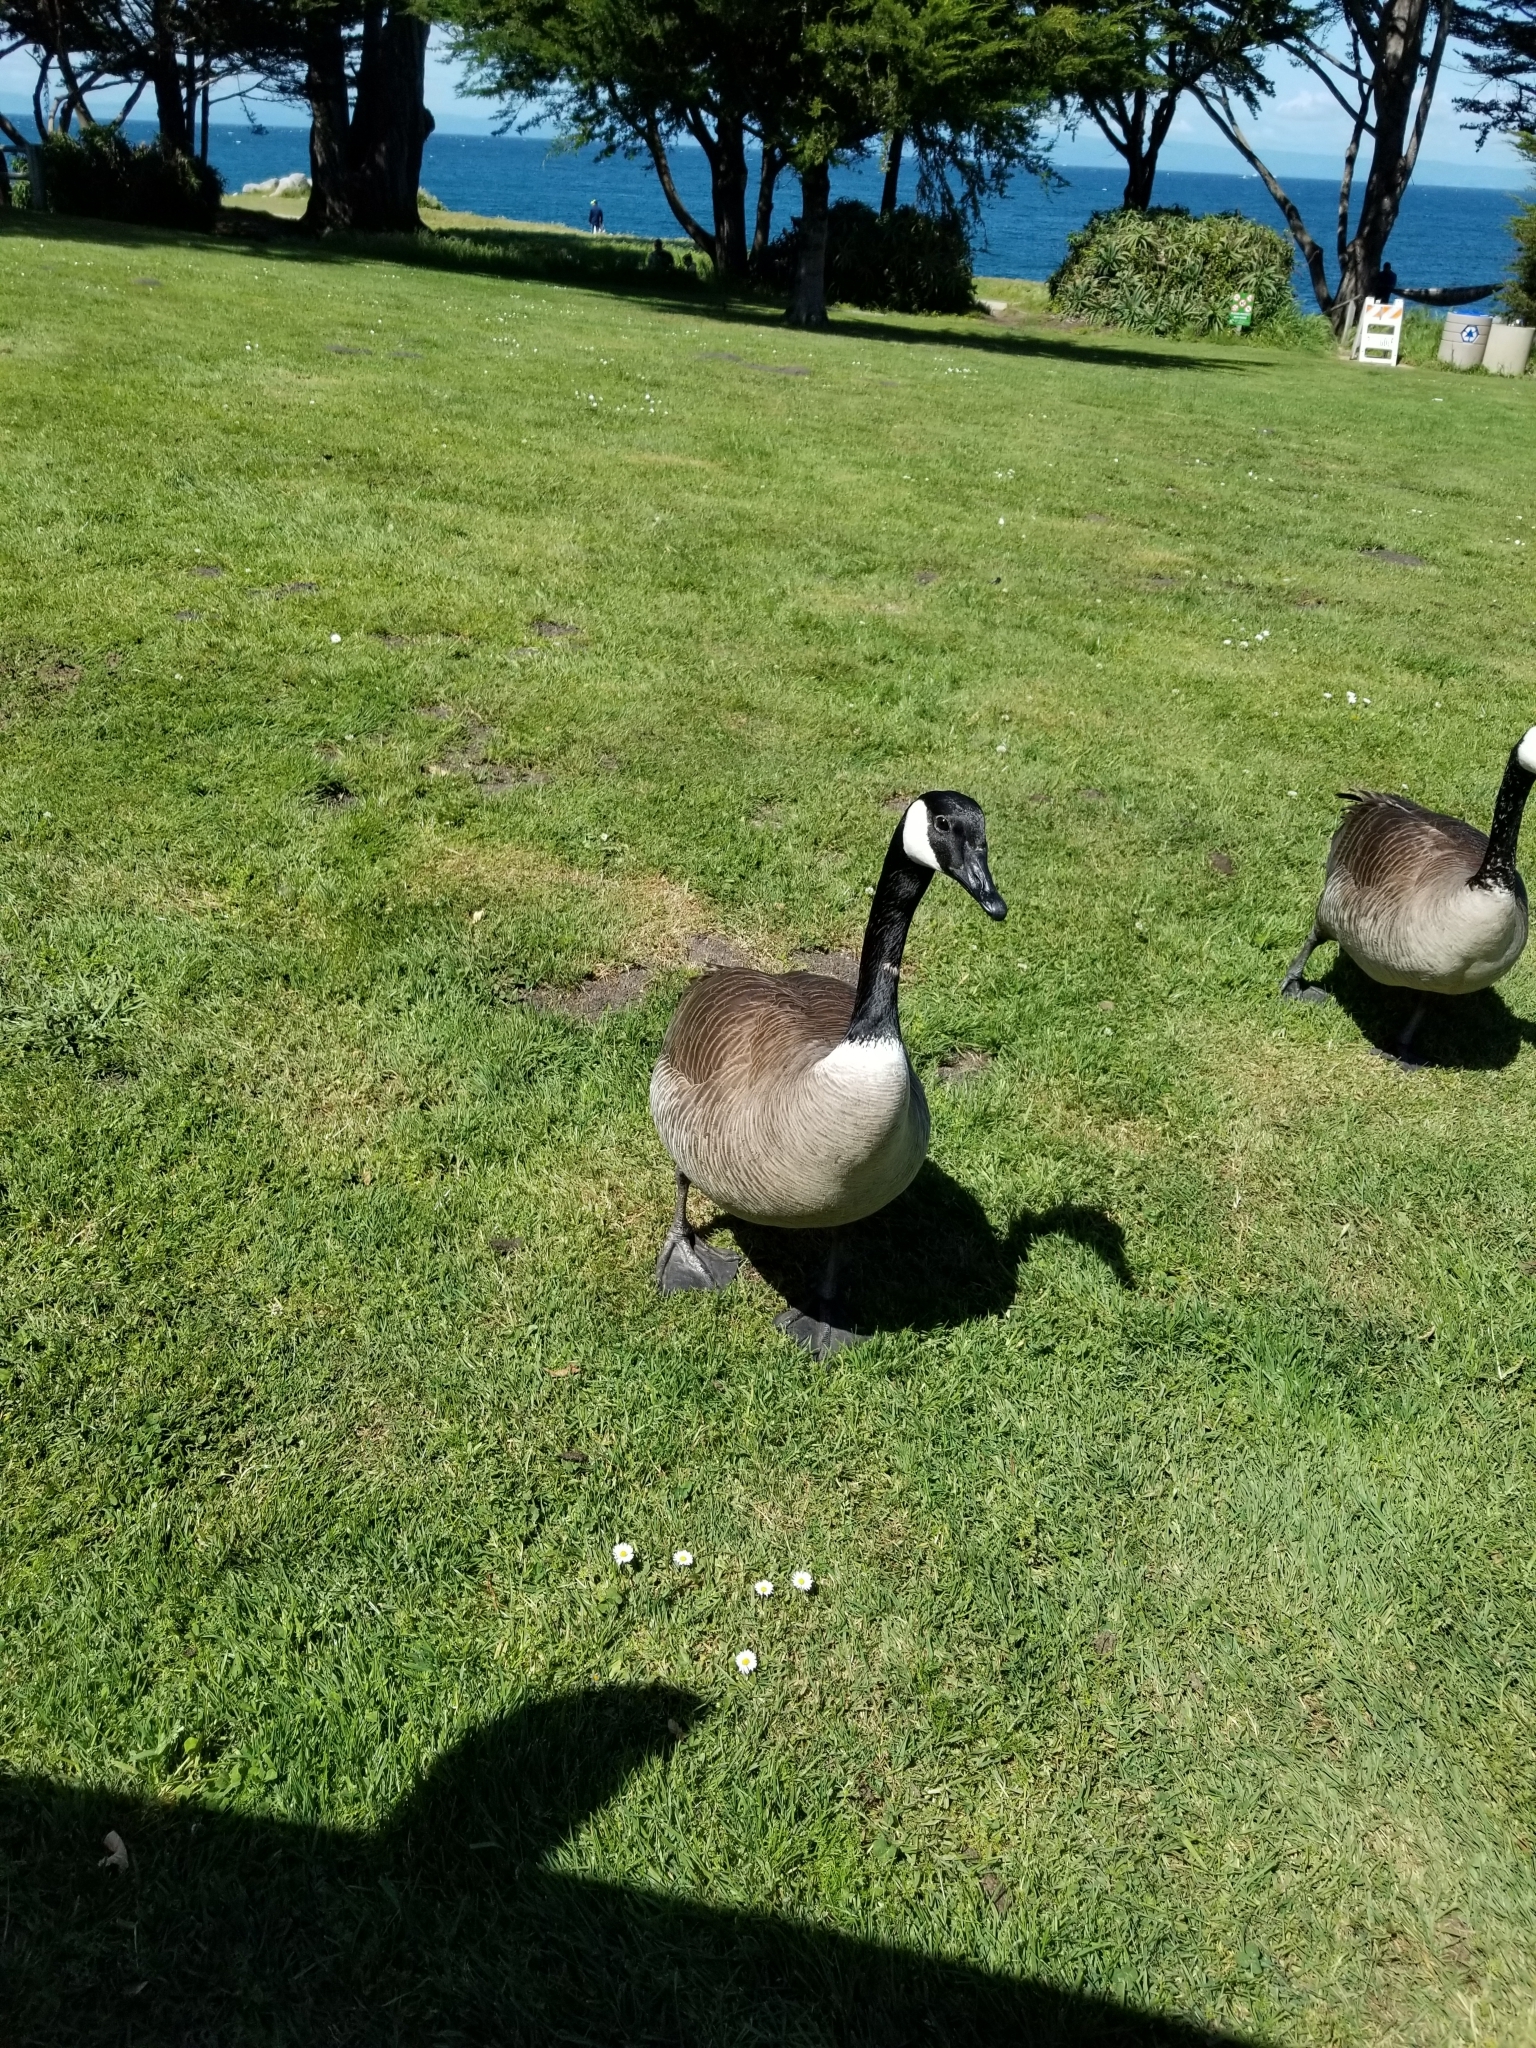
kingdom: Animalia
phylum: Chordata
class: Aves
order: Anseriformes
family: Anatidae
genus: Branta
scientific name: Branta canadensis
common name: Canada goose
